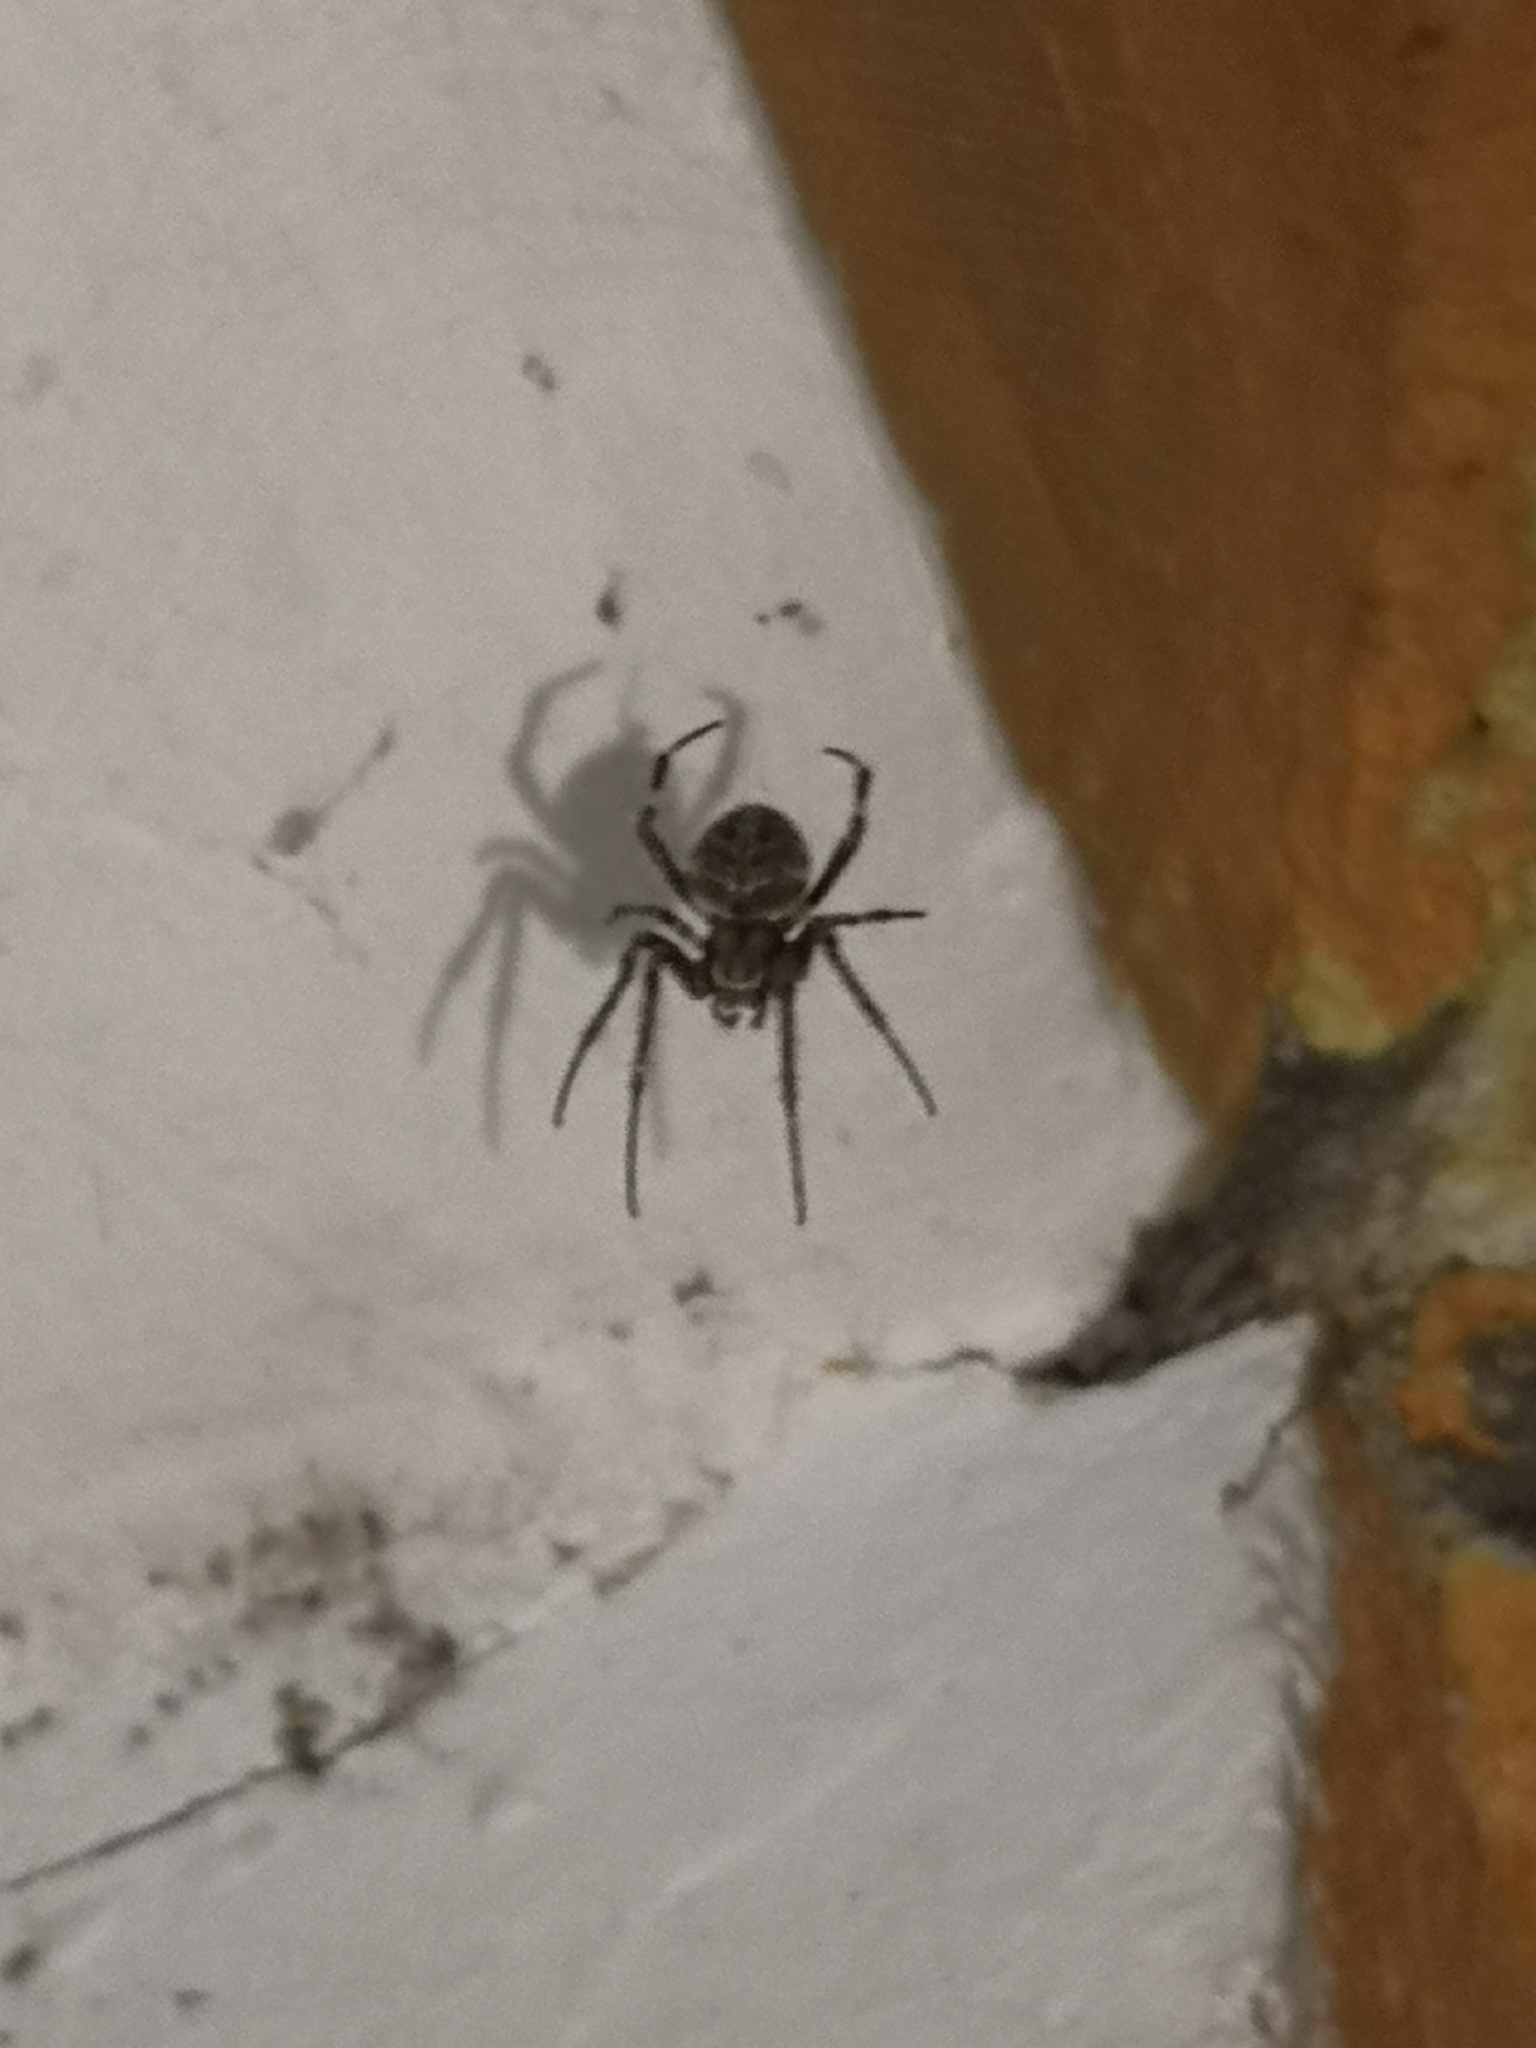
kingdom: Animalia
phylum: Arthropoda
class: Arachnida
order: Araneae
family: Araneidae
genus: Neoscona
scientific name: Neoscona nautica
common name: Orb weavers
